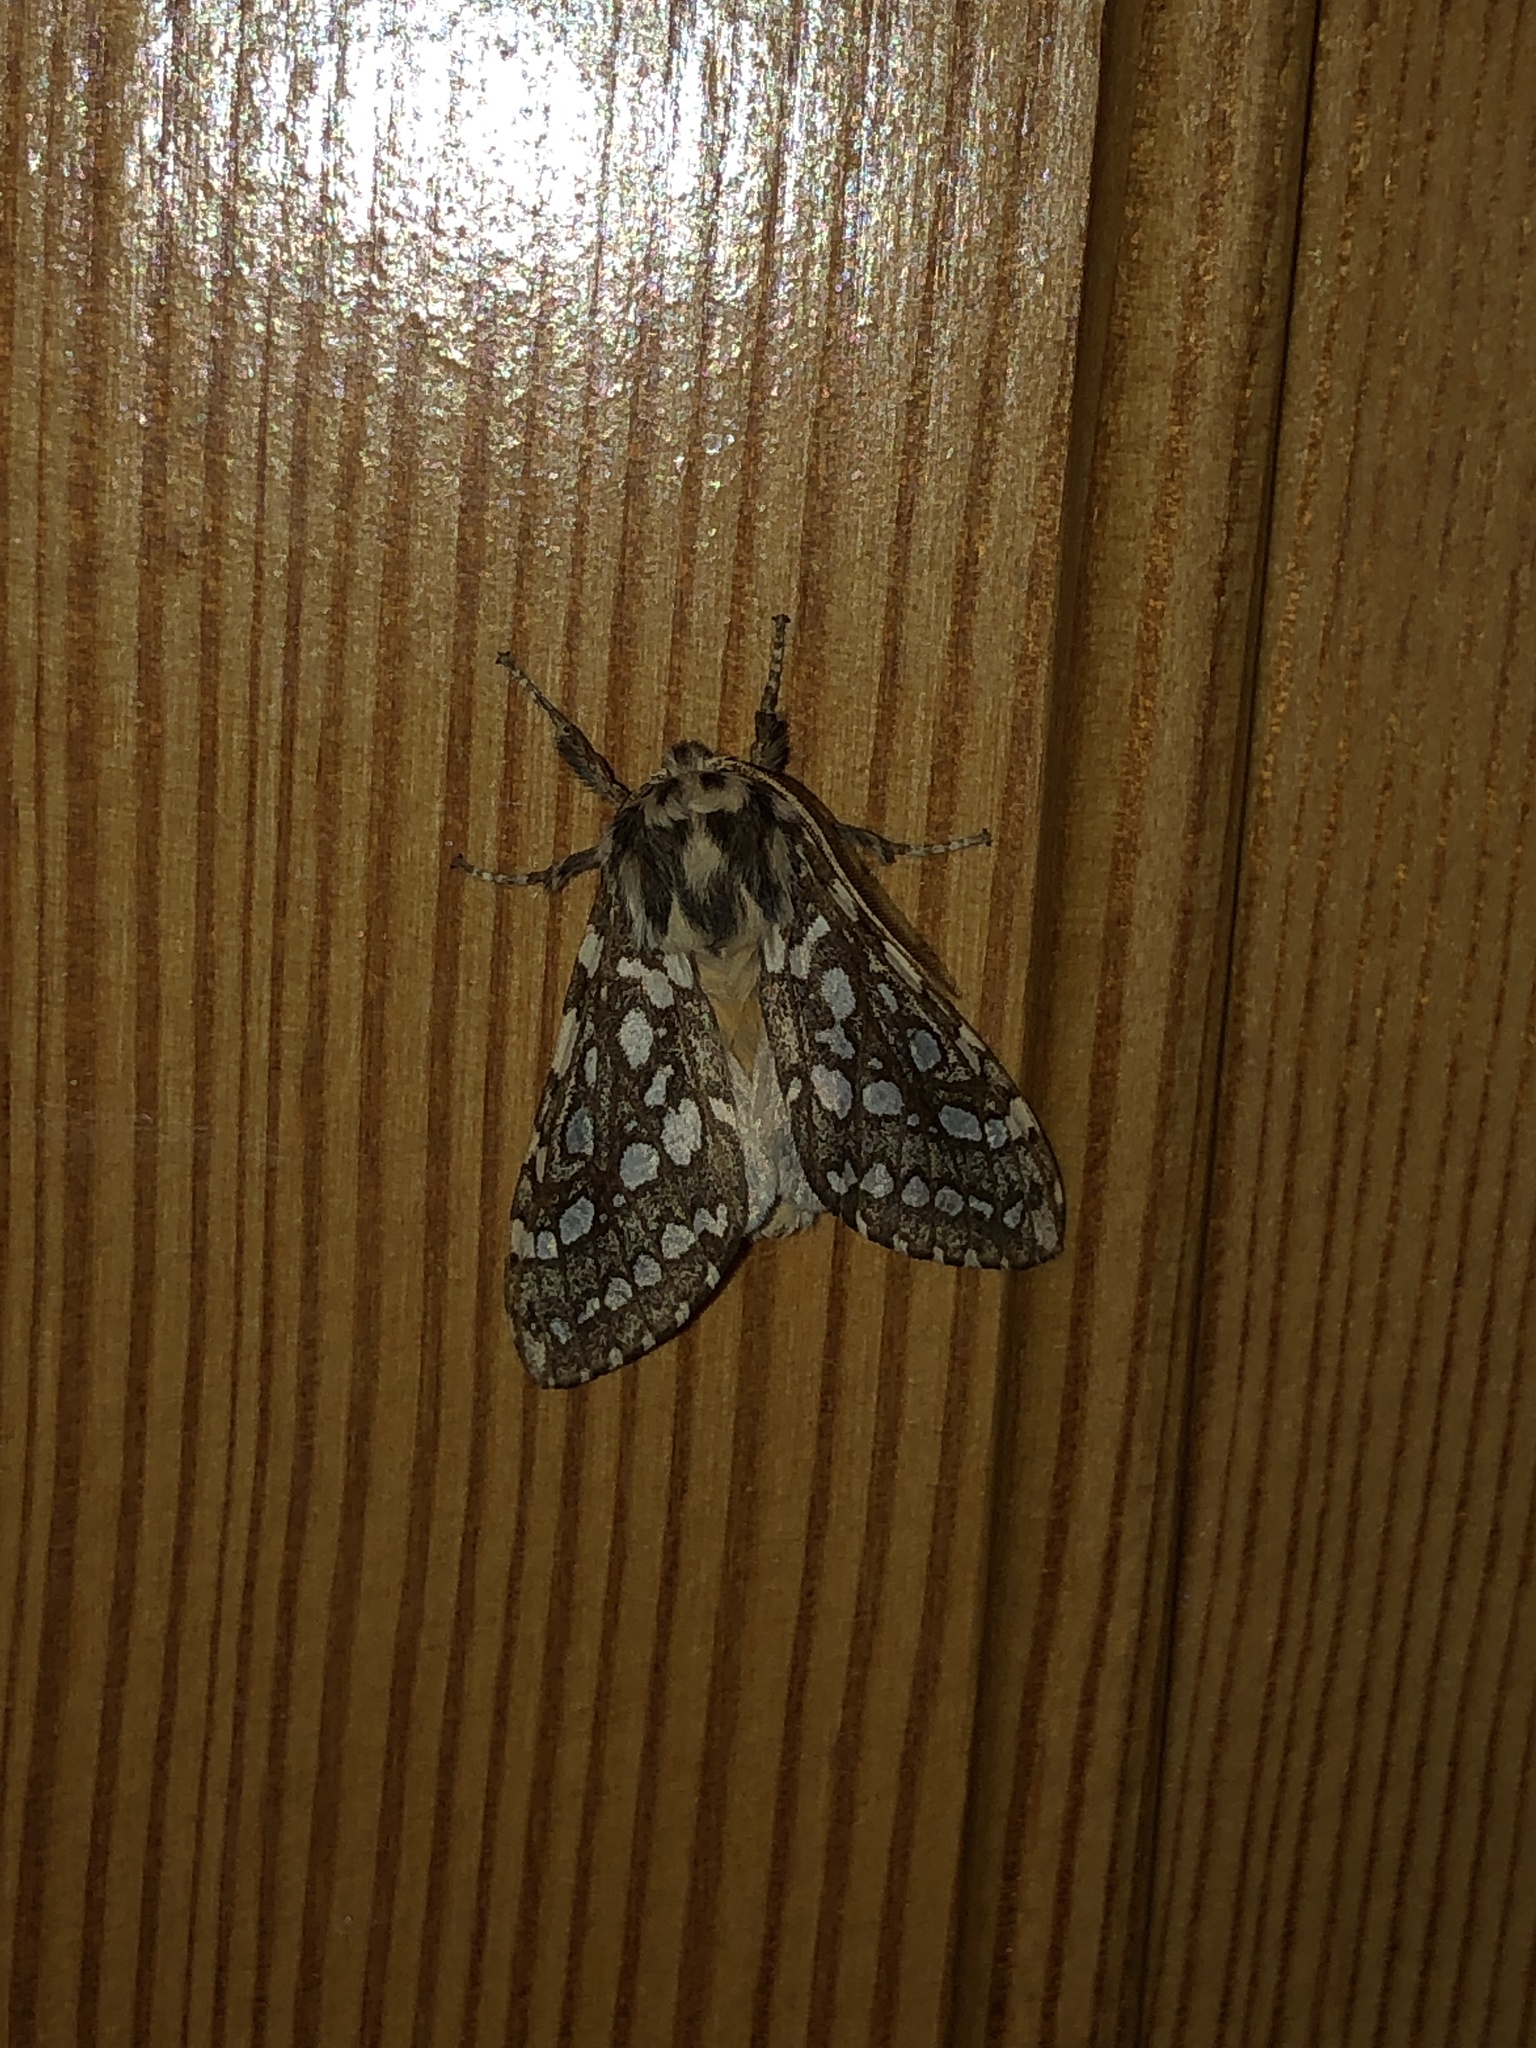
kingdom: Animalia
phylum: Arthropoda
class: Insecta
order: Lepidoptera
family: Erebidae
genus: Lophocampa
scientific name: Lophocampa argentata
